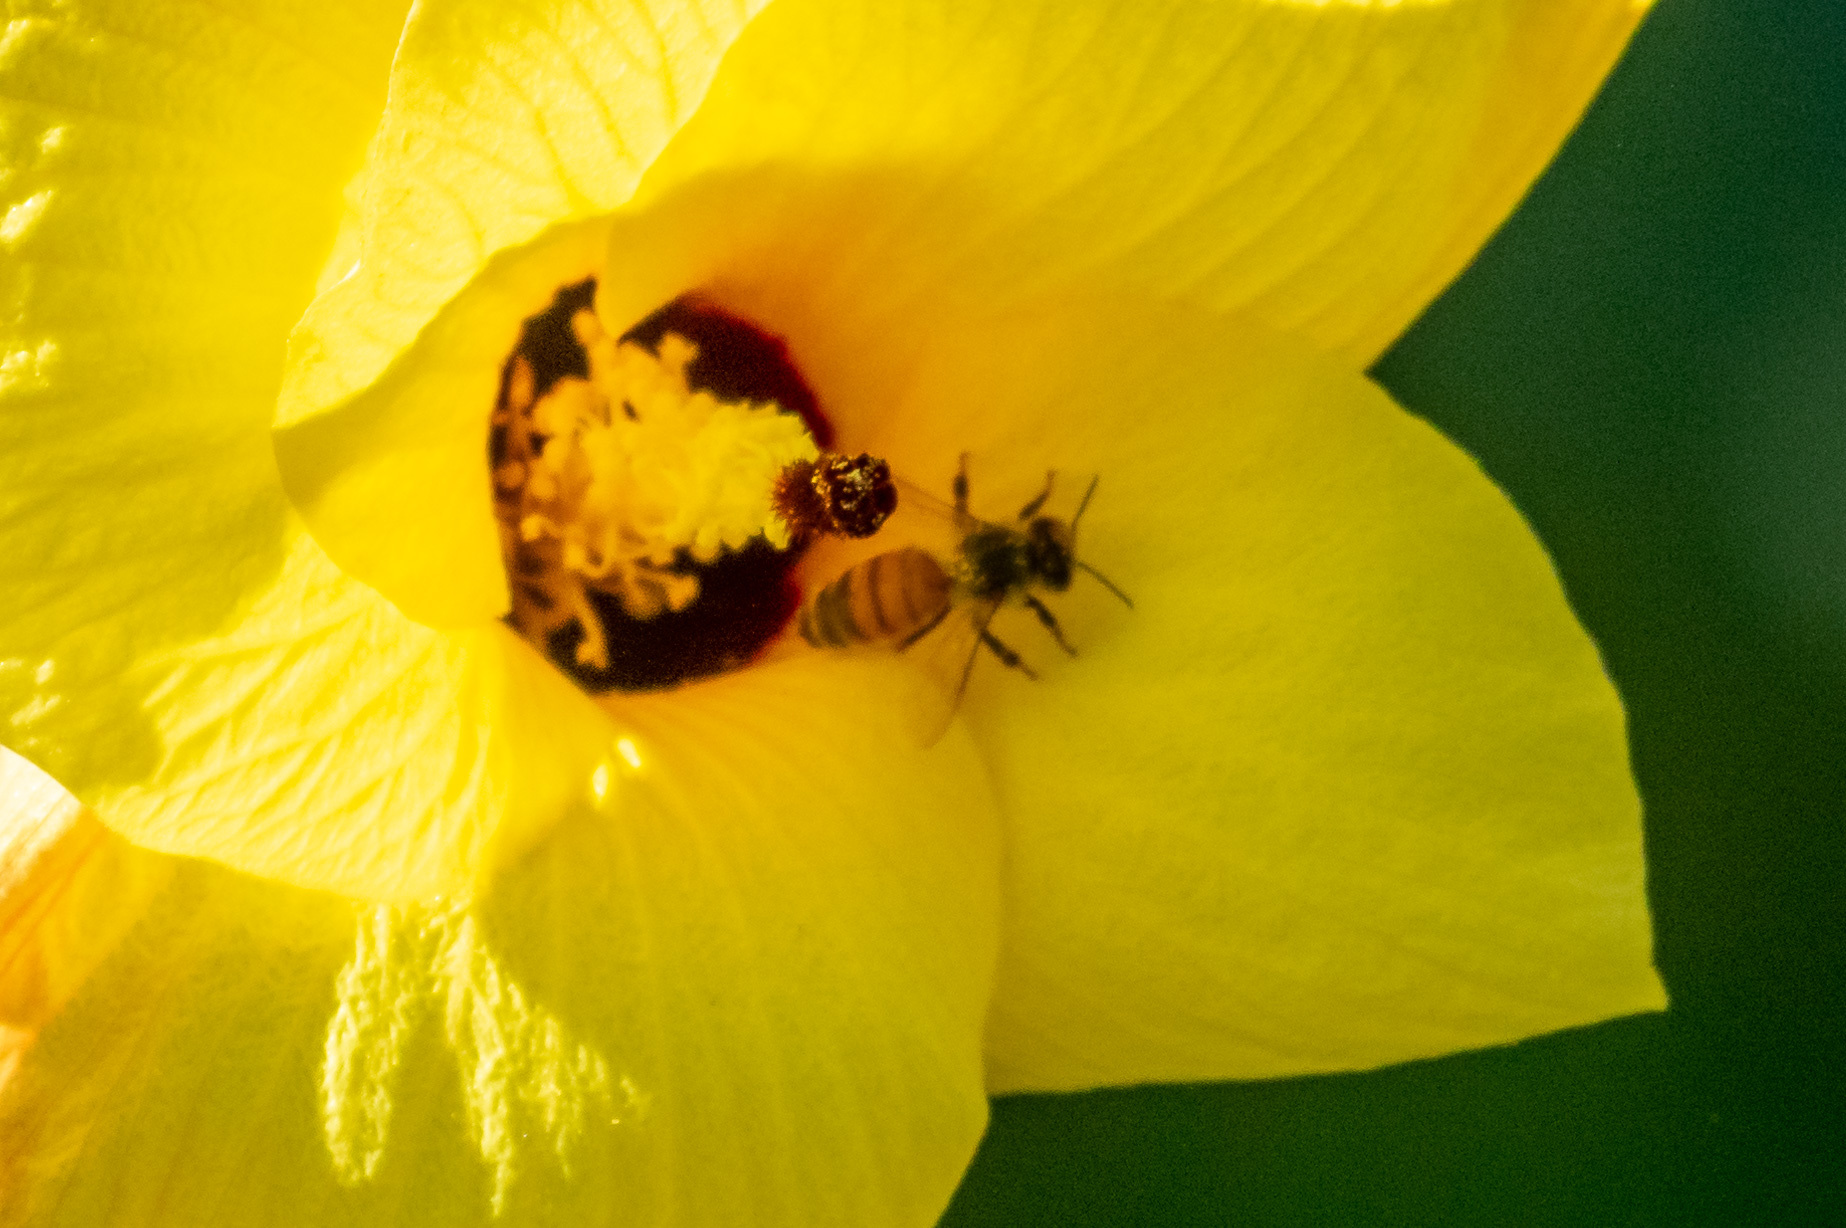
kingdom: Animalia
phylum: Arthropoda
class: Insecta
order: Hymenoptera
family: Apidae
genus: Apis
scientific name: Apis mellifera
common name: Honey bee
